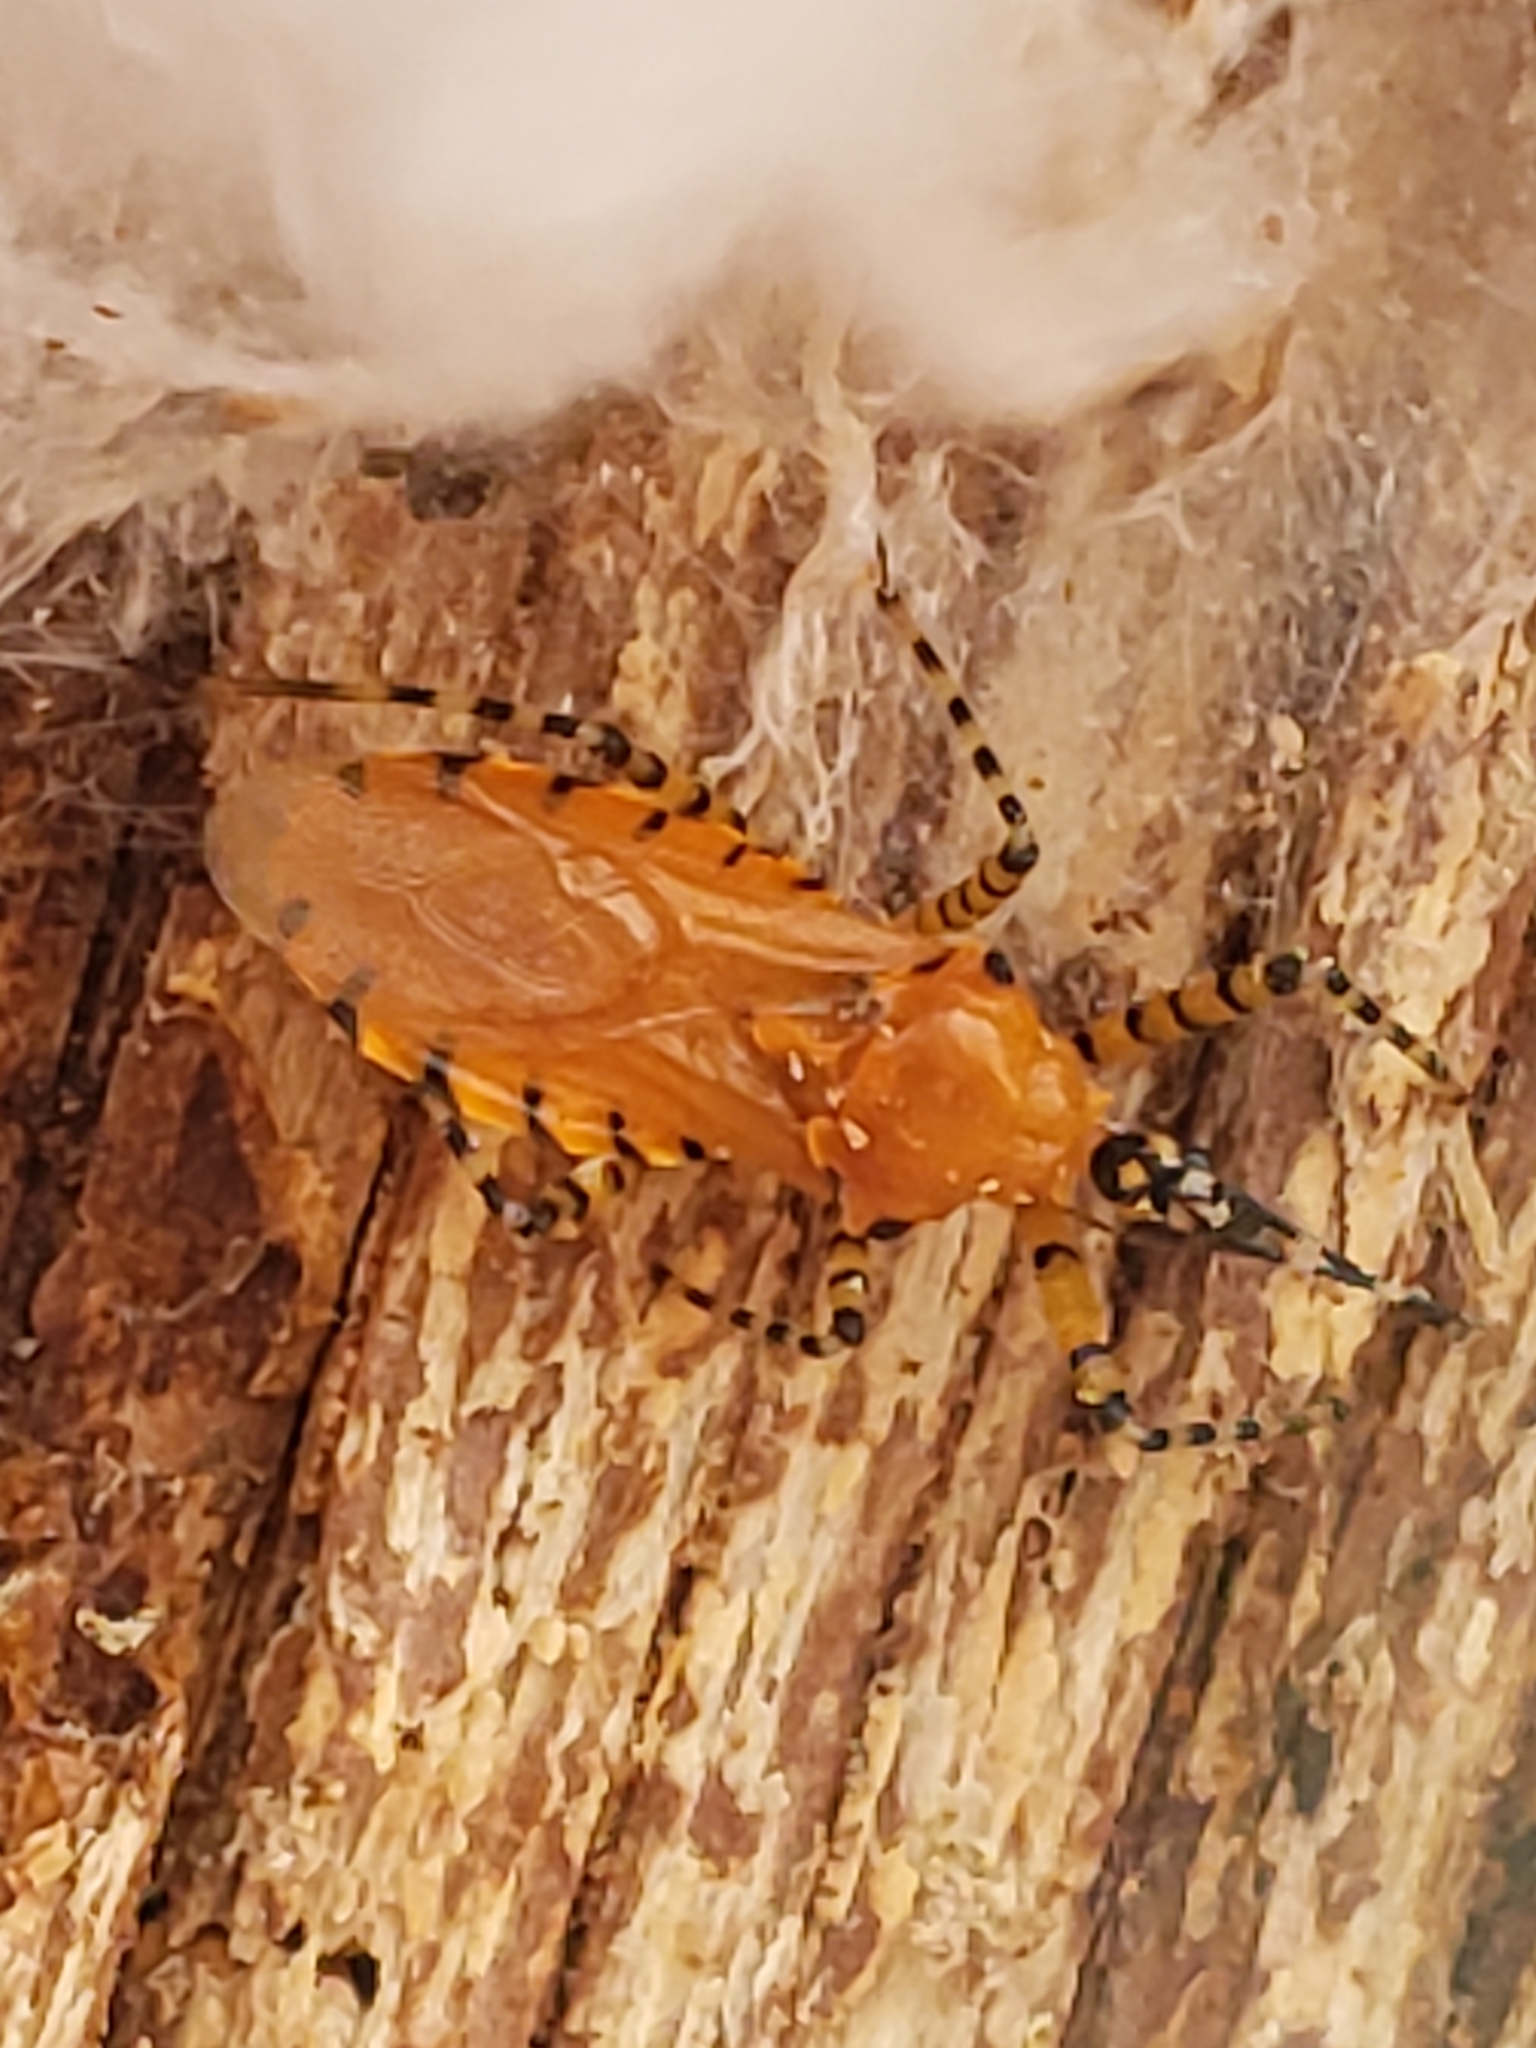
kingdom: Animalia
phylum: Arthropoda
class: Insecta
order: Hemiptera
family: Reduviidae
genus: Pselliopus
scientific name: Pselliopus barberi
